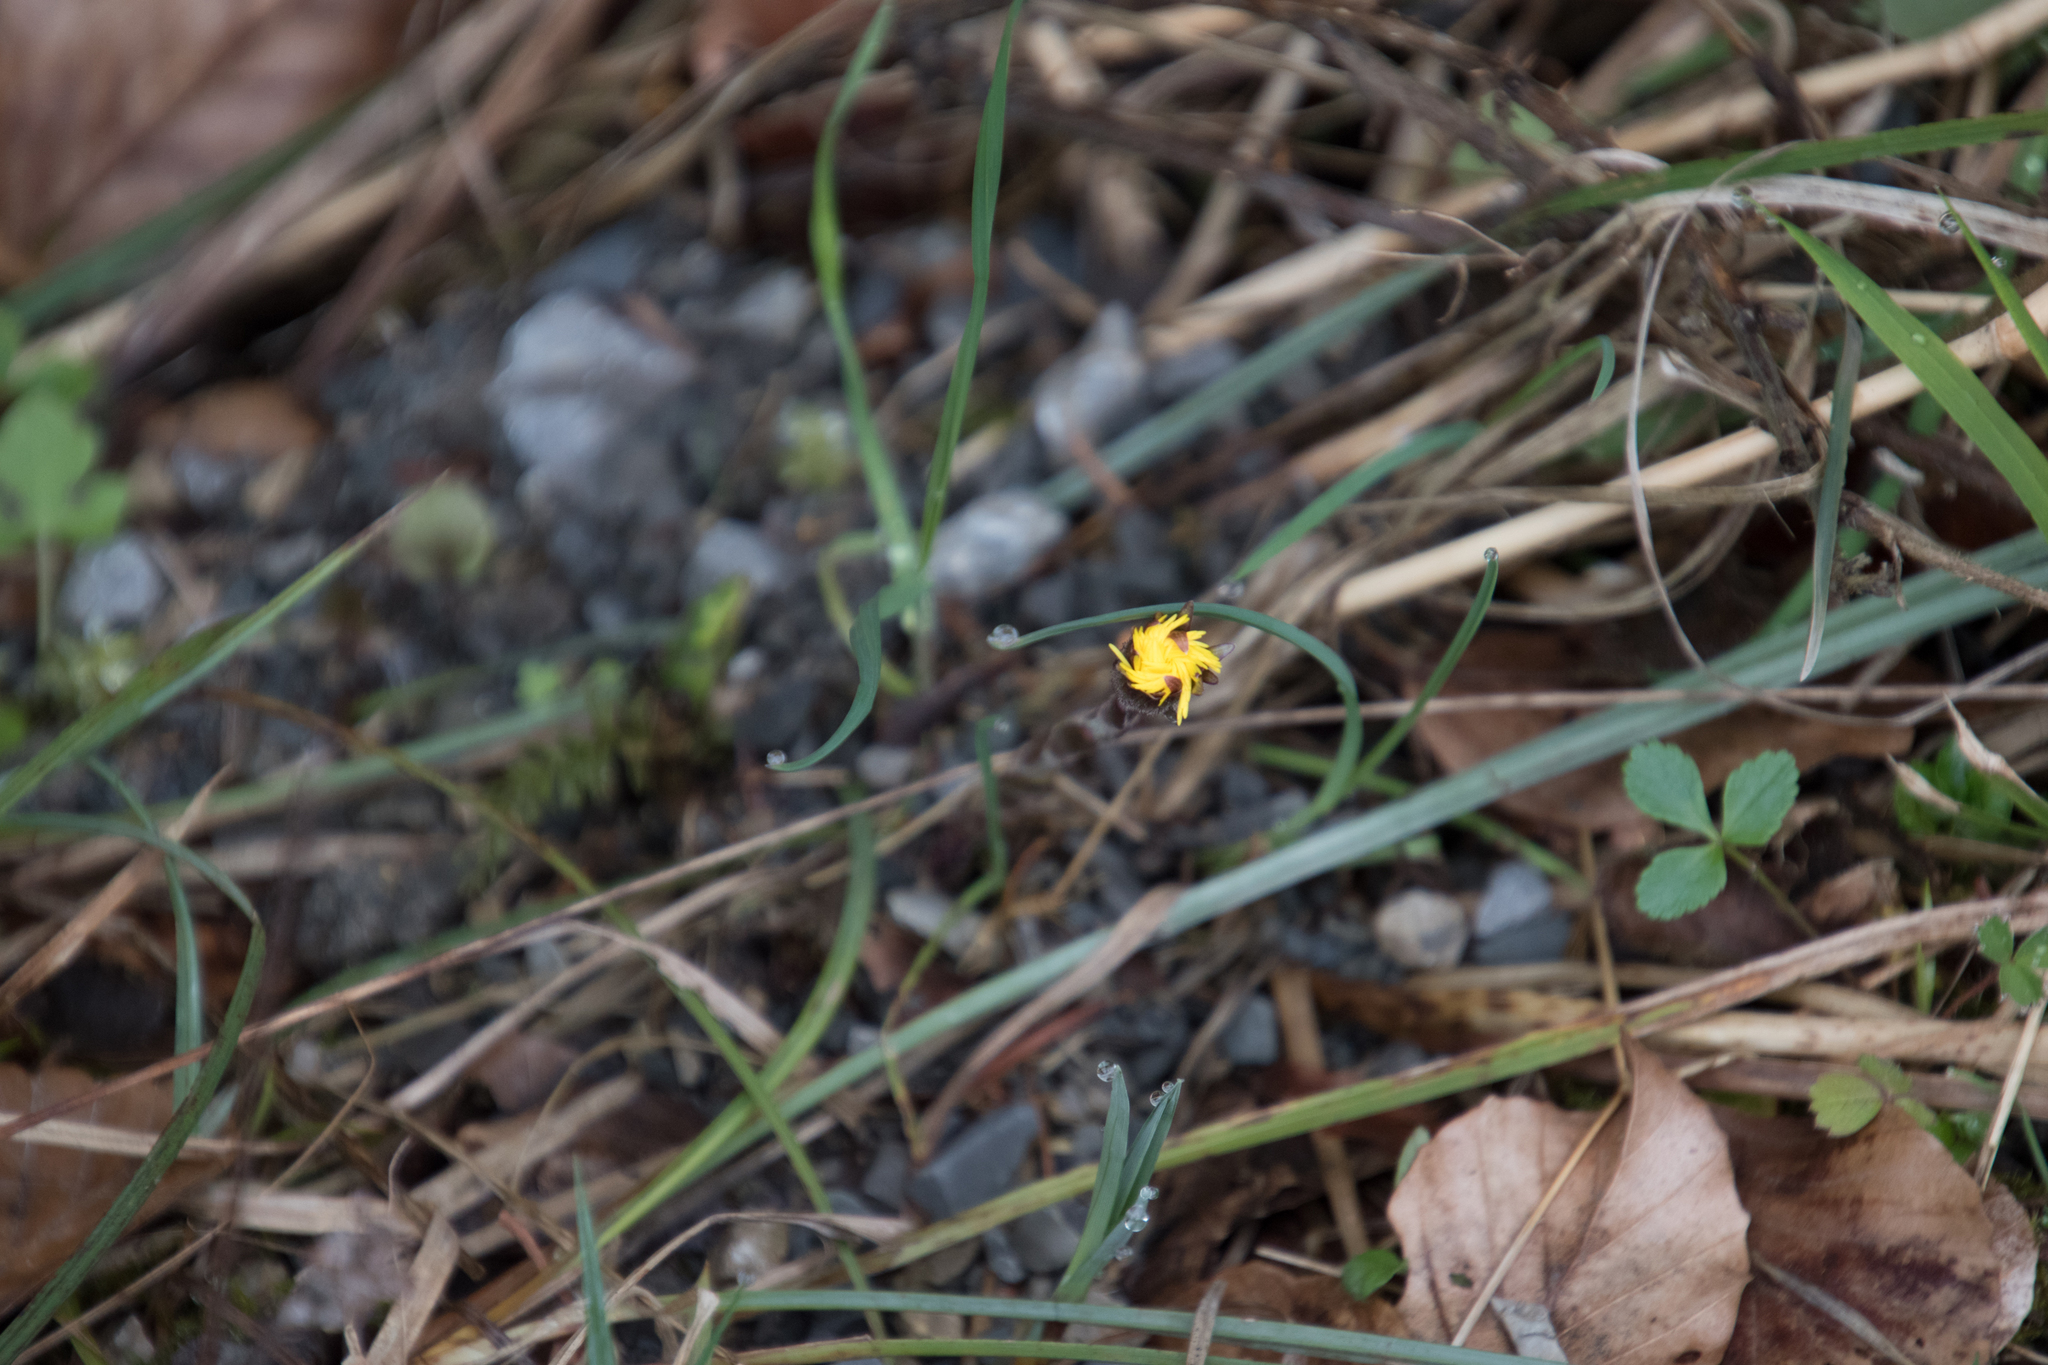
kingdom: Plantae
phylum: Tracheophyta
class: Magnoliopsida
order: Asterales
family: Asteraceae
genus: Tussilago
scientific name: Tussilago farfara
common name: Coltsfoot
